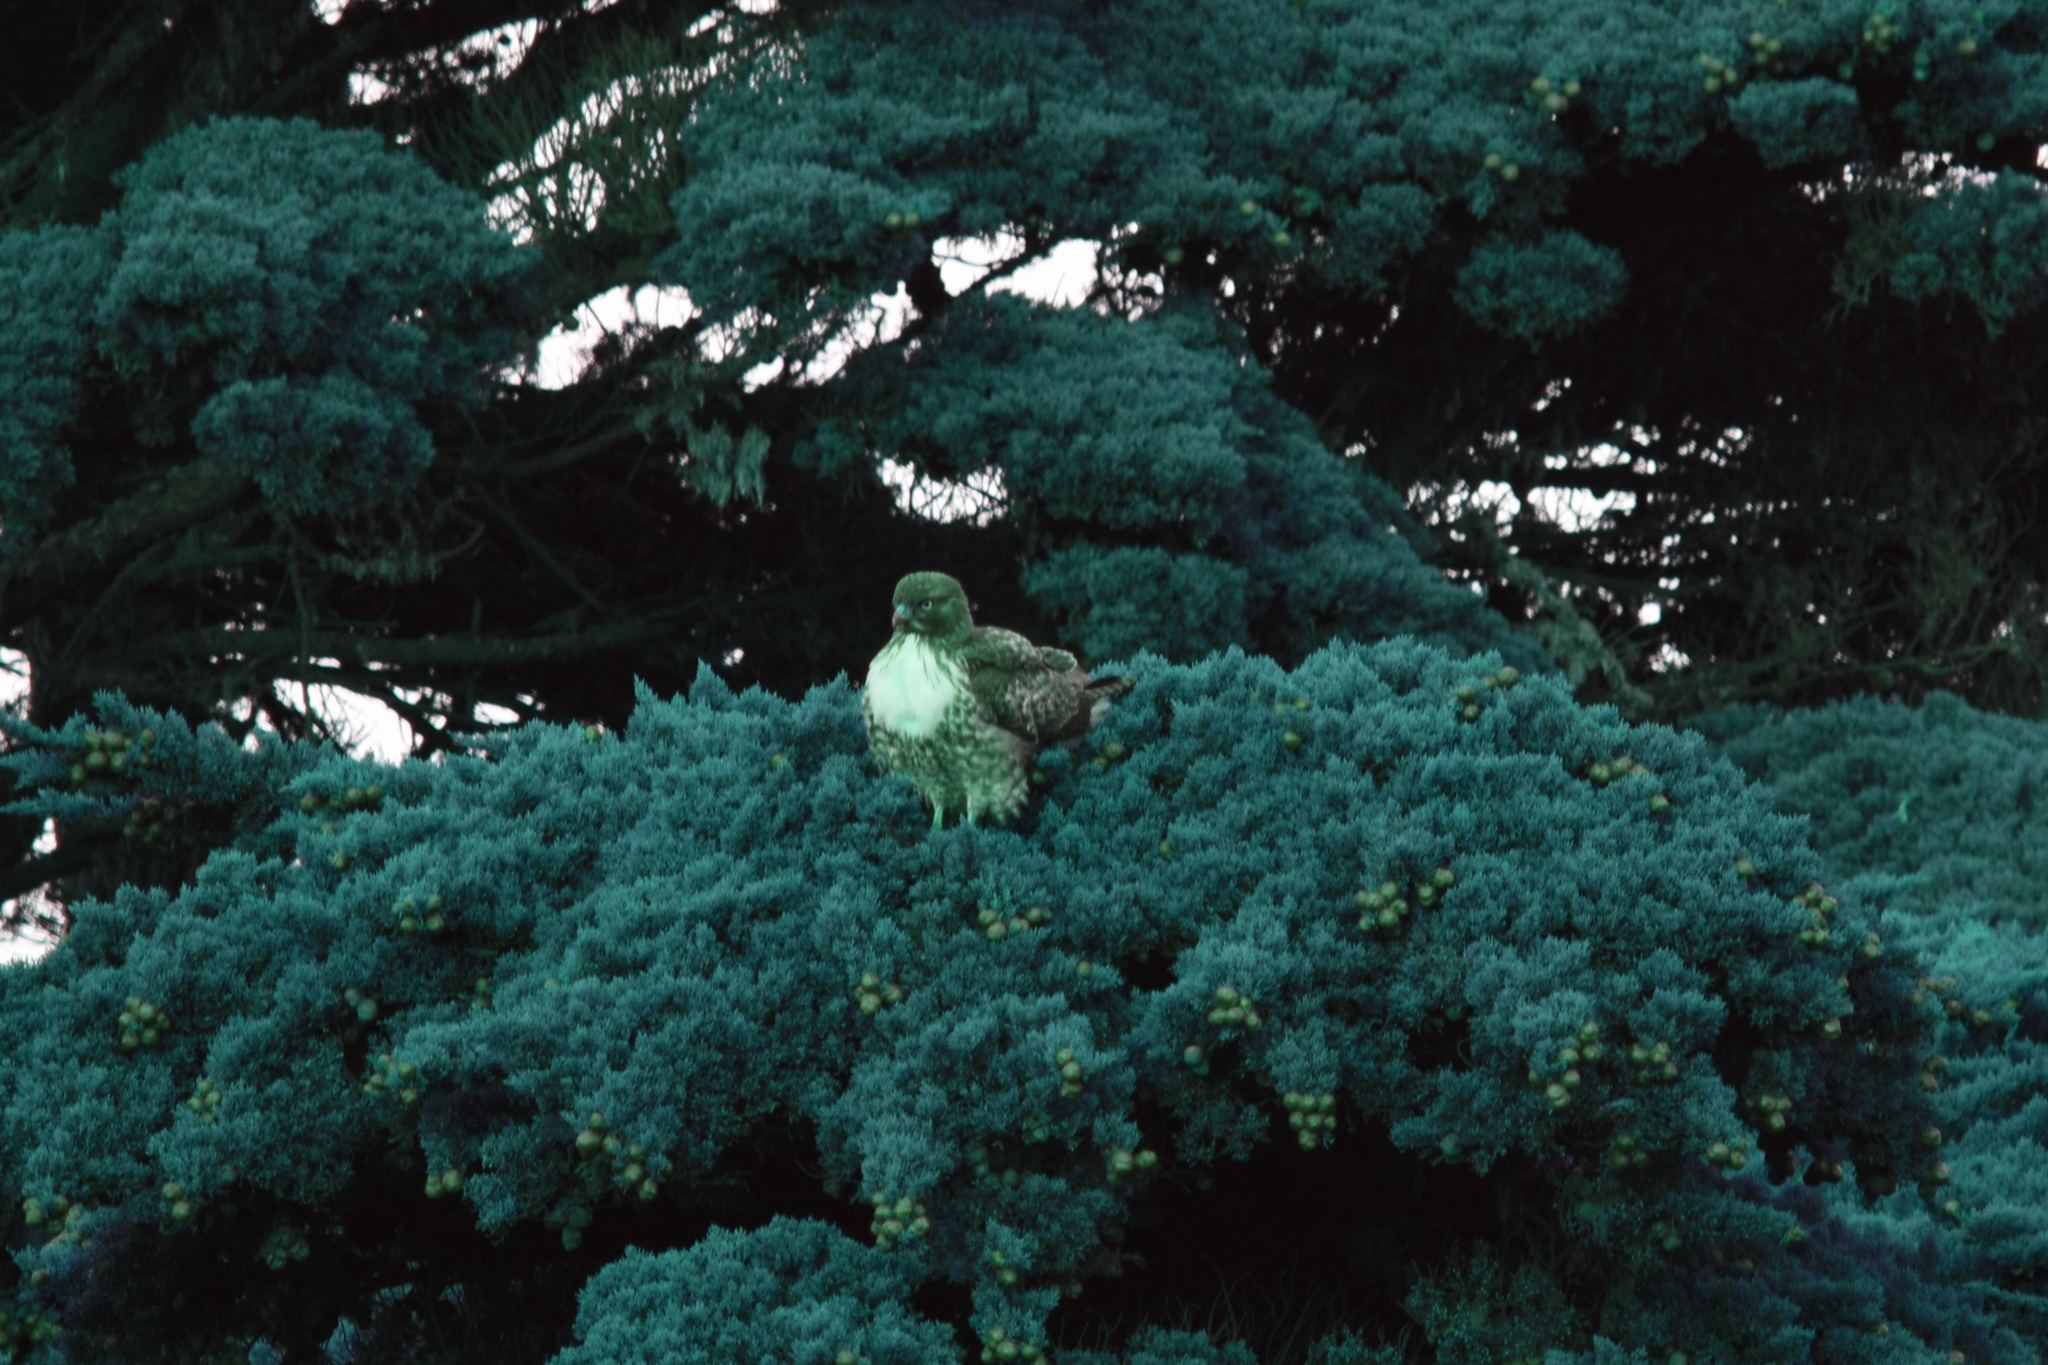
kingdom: Animalia
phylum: Chordata
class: Aves
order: Accipitriformes
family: Accipitridae
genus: Buteo
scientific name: Buteo jamaicensis
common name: Red-tailed hawk
